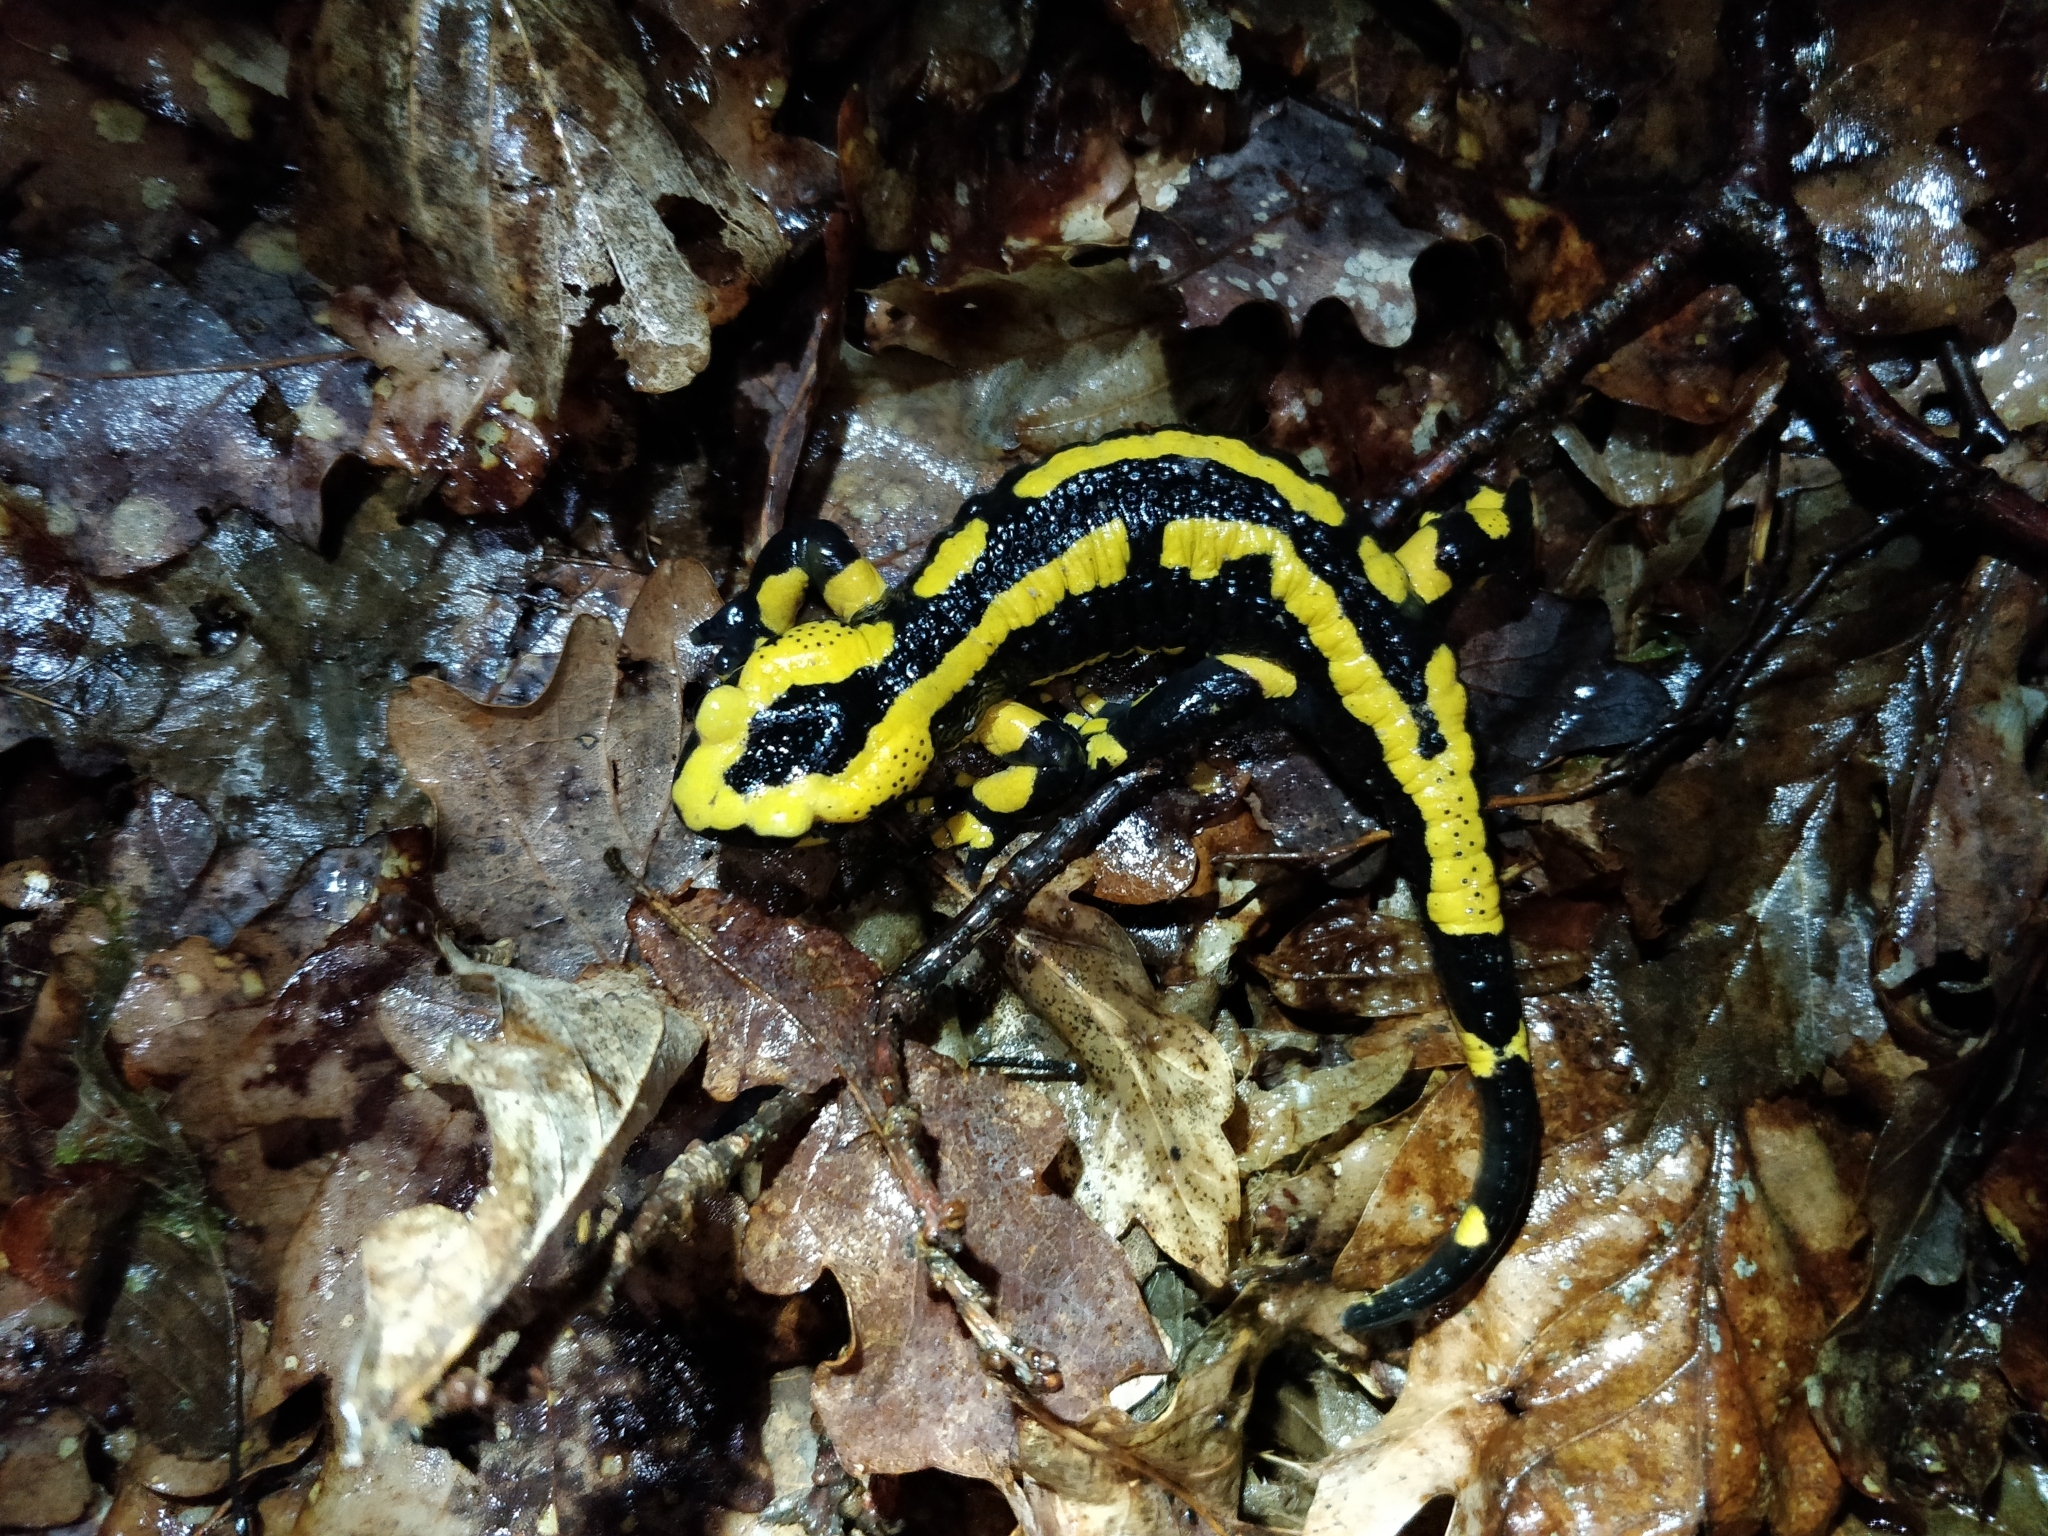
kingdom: Animalia
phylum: Chordata
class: Amphibia
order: Caudata
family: Salamandridae
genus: Salamandra
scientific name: Salamandra salamandra
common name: Fire salamander
